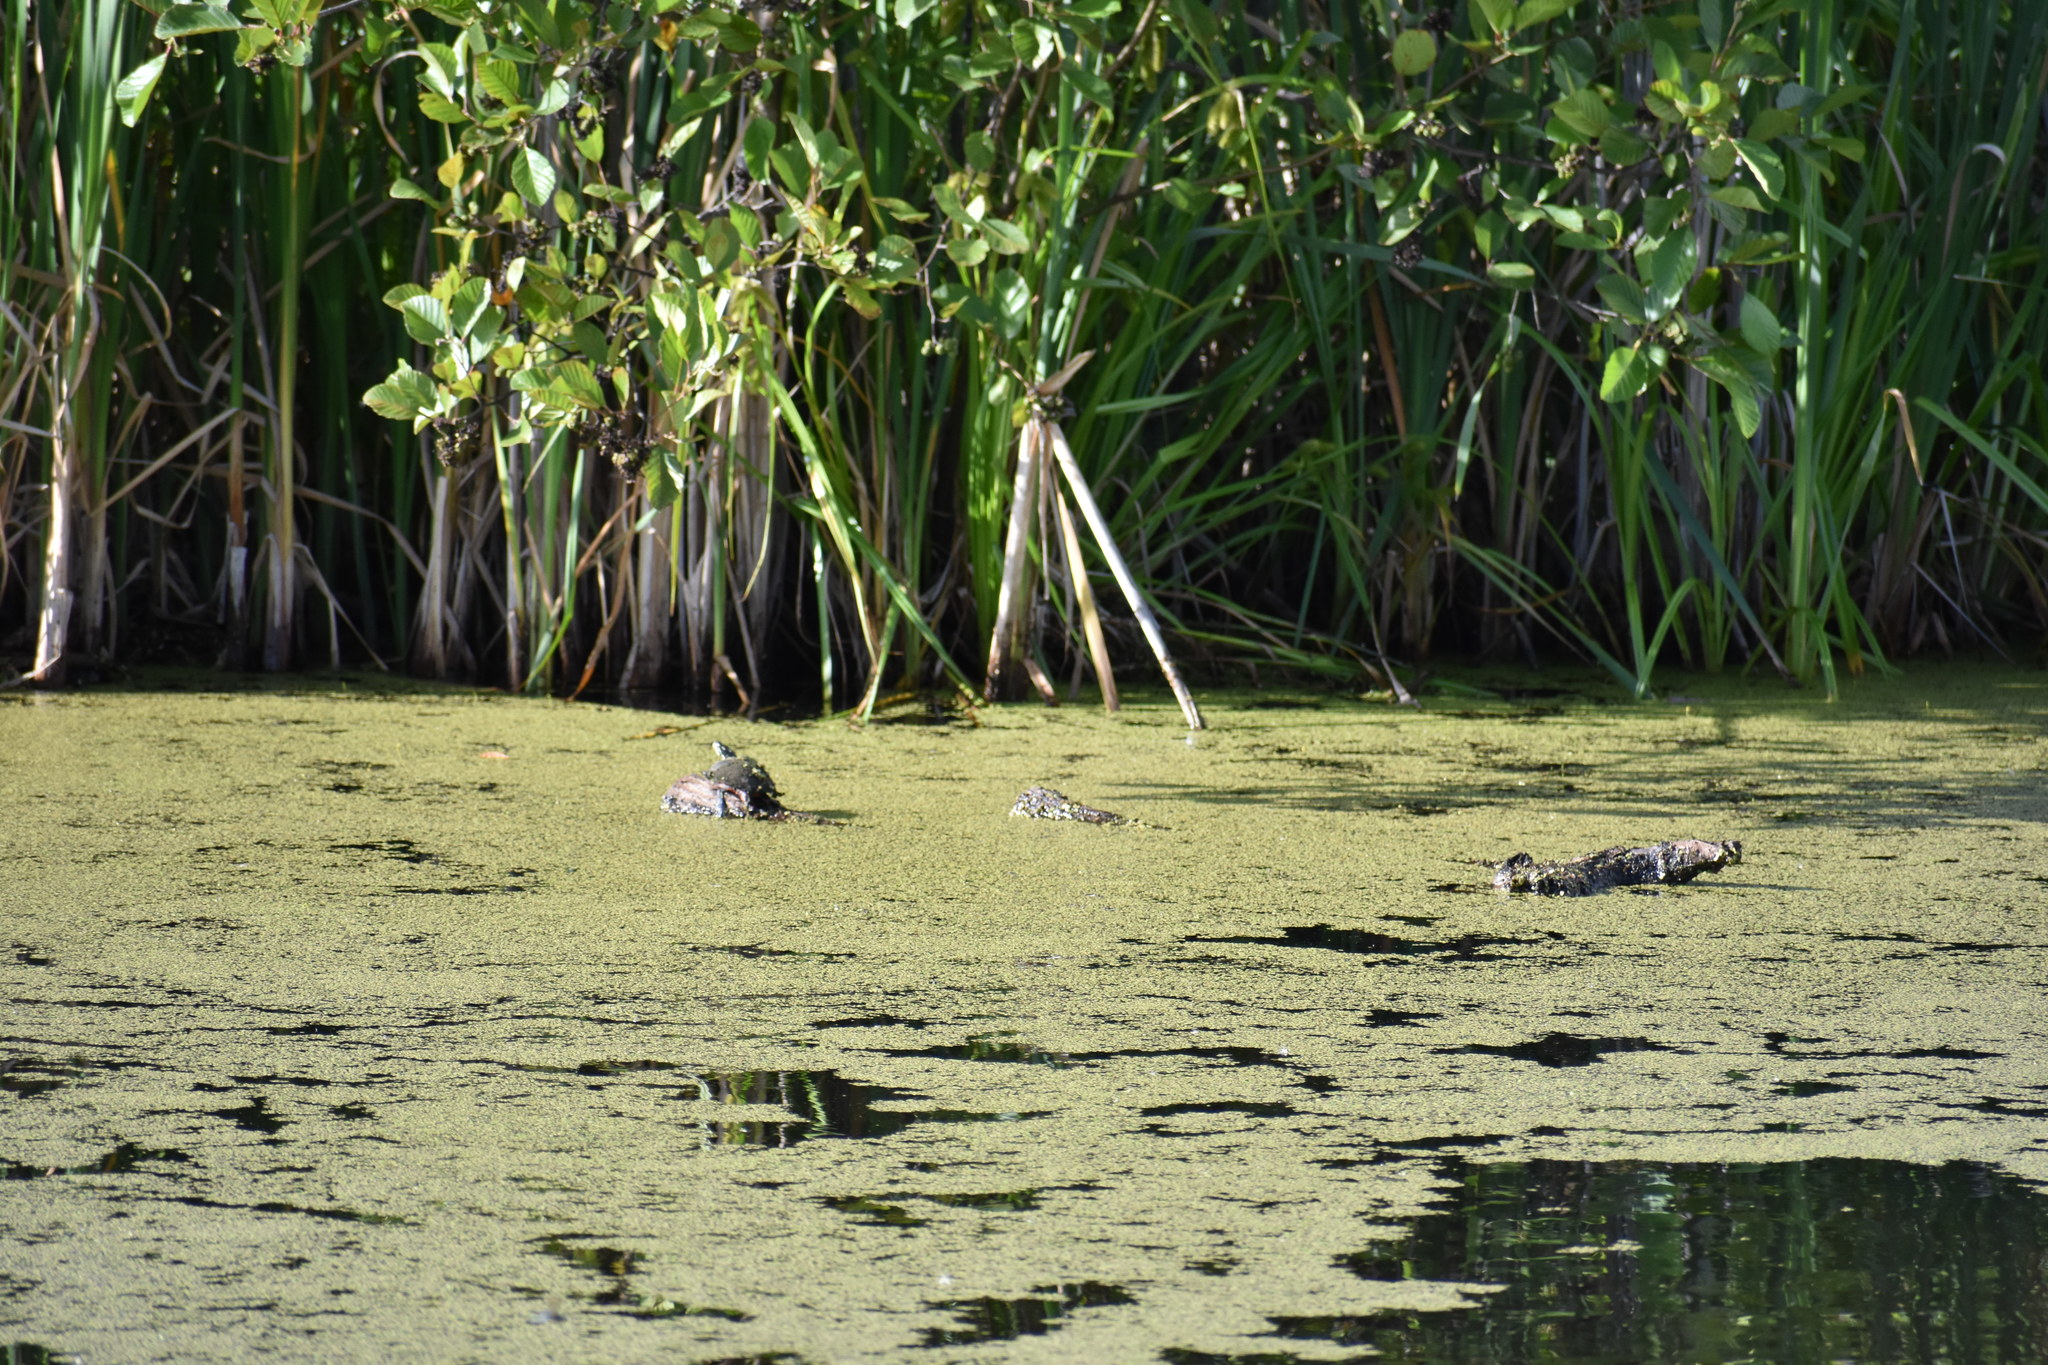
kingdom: Animalia
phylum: Chordata
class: Testudines
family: Emydidae
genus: Chrysemys
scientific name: Chrysemys picta
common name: Painted turtle
